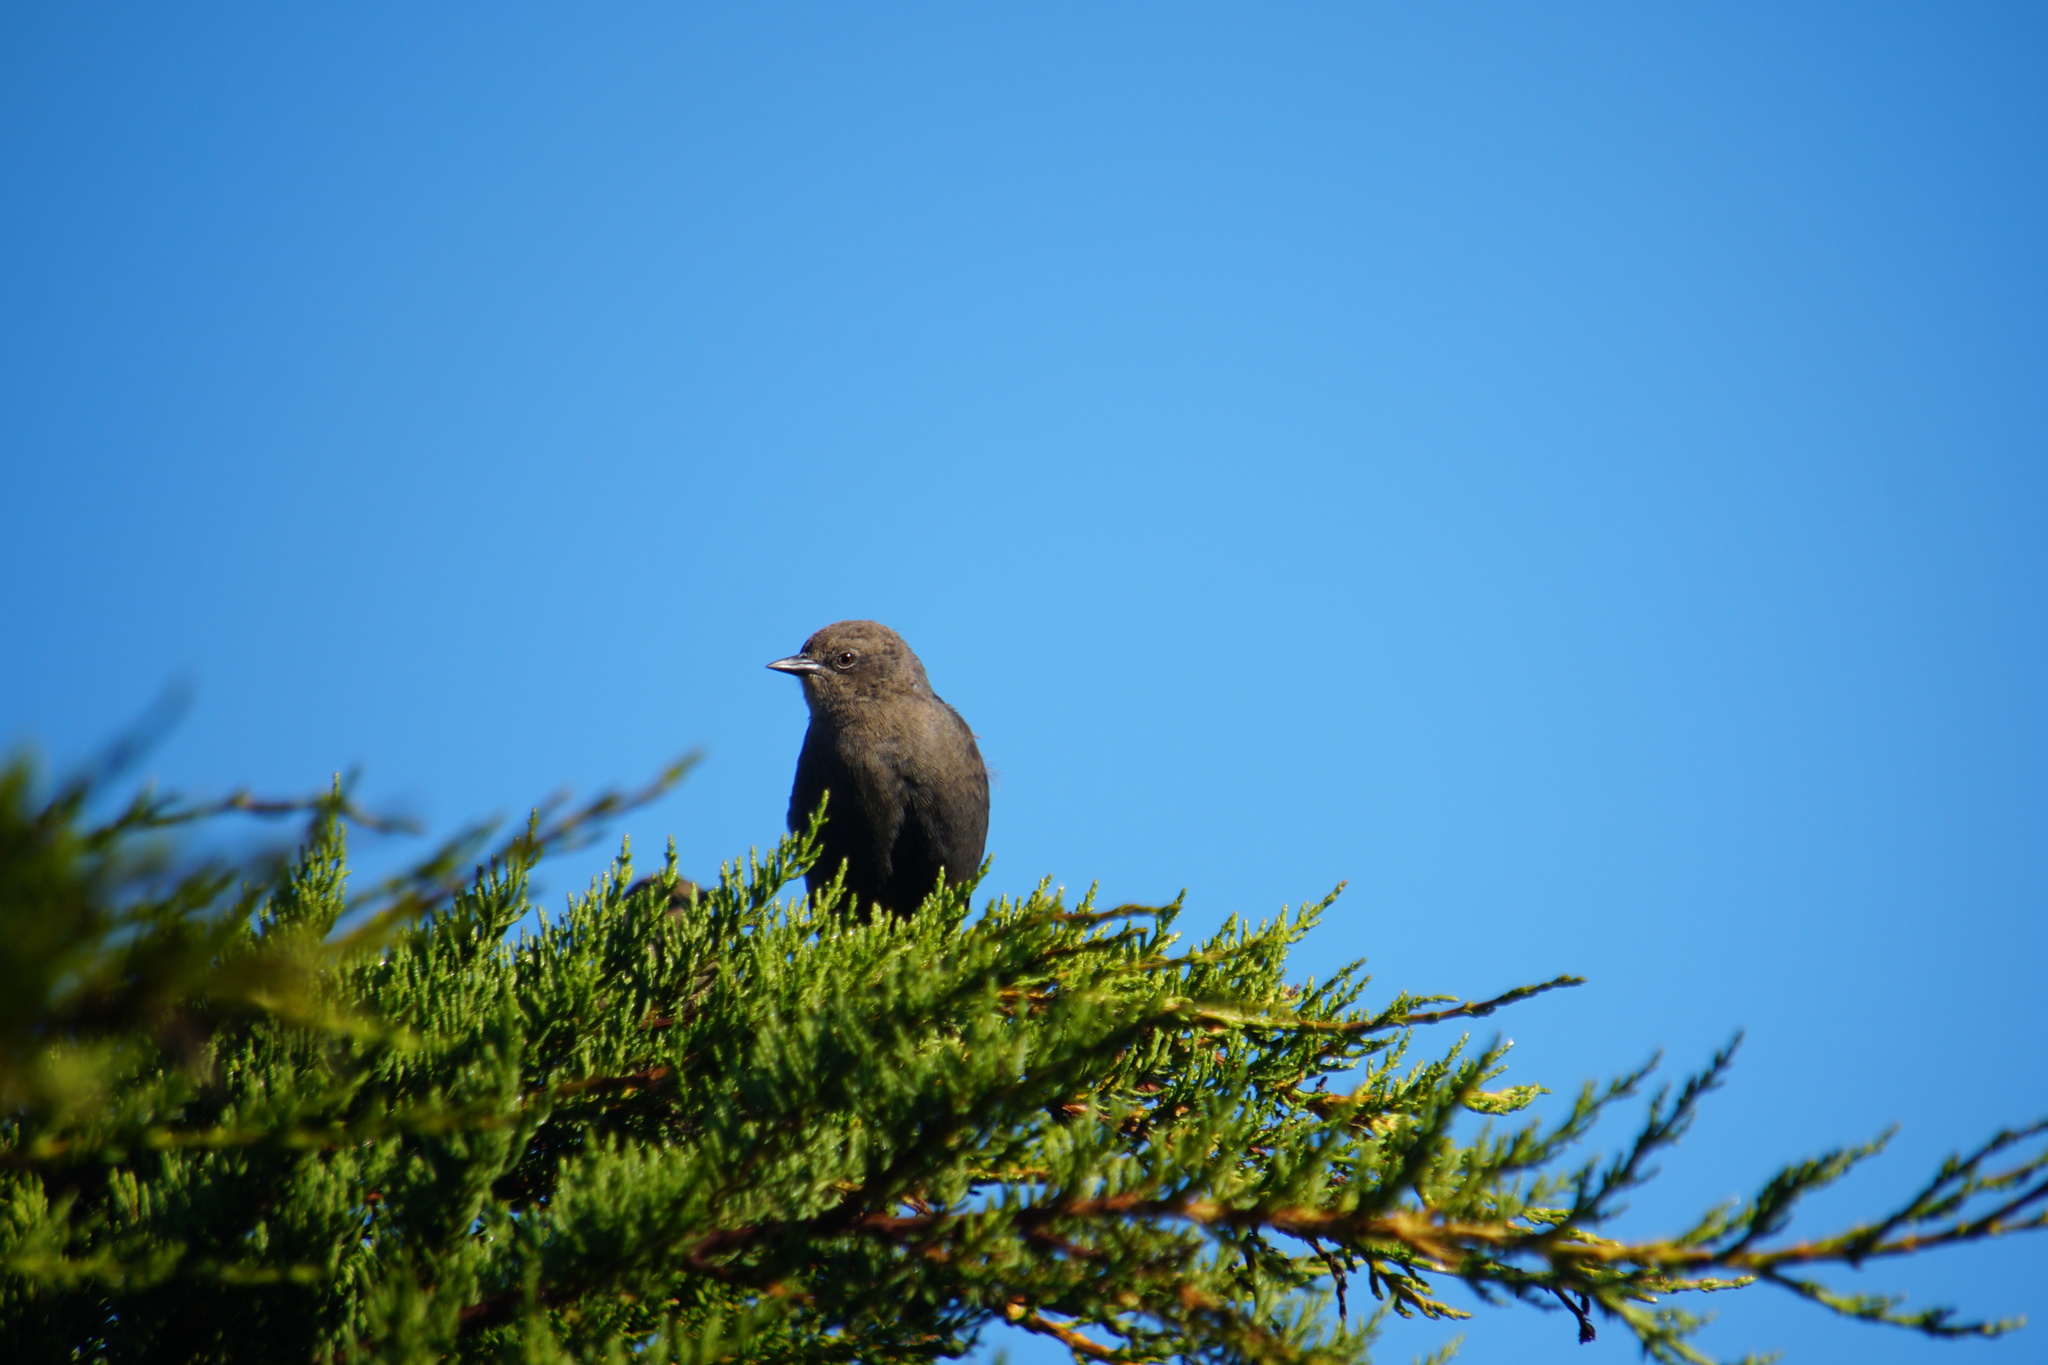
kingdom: Animalia
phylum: Chordata
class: Aves
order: Passeriformes
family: Icteridae
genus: Euphagus
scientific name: Euphagus cyanocephalus
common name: Brewer's blackbird
